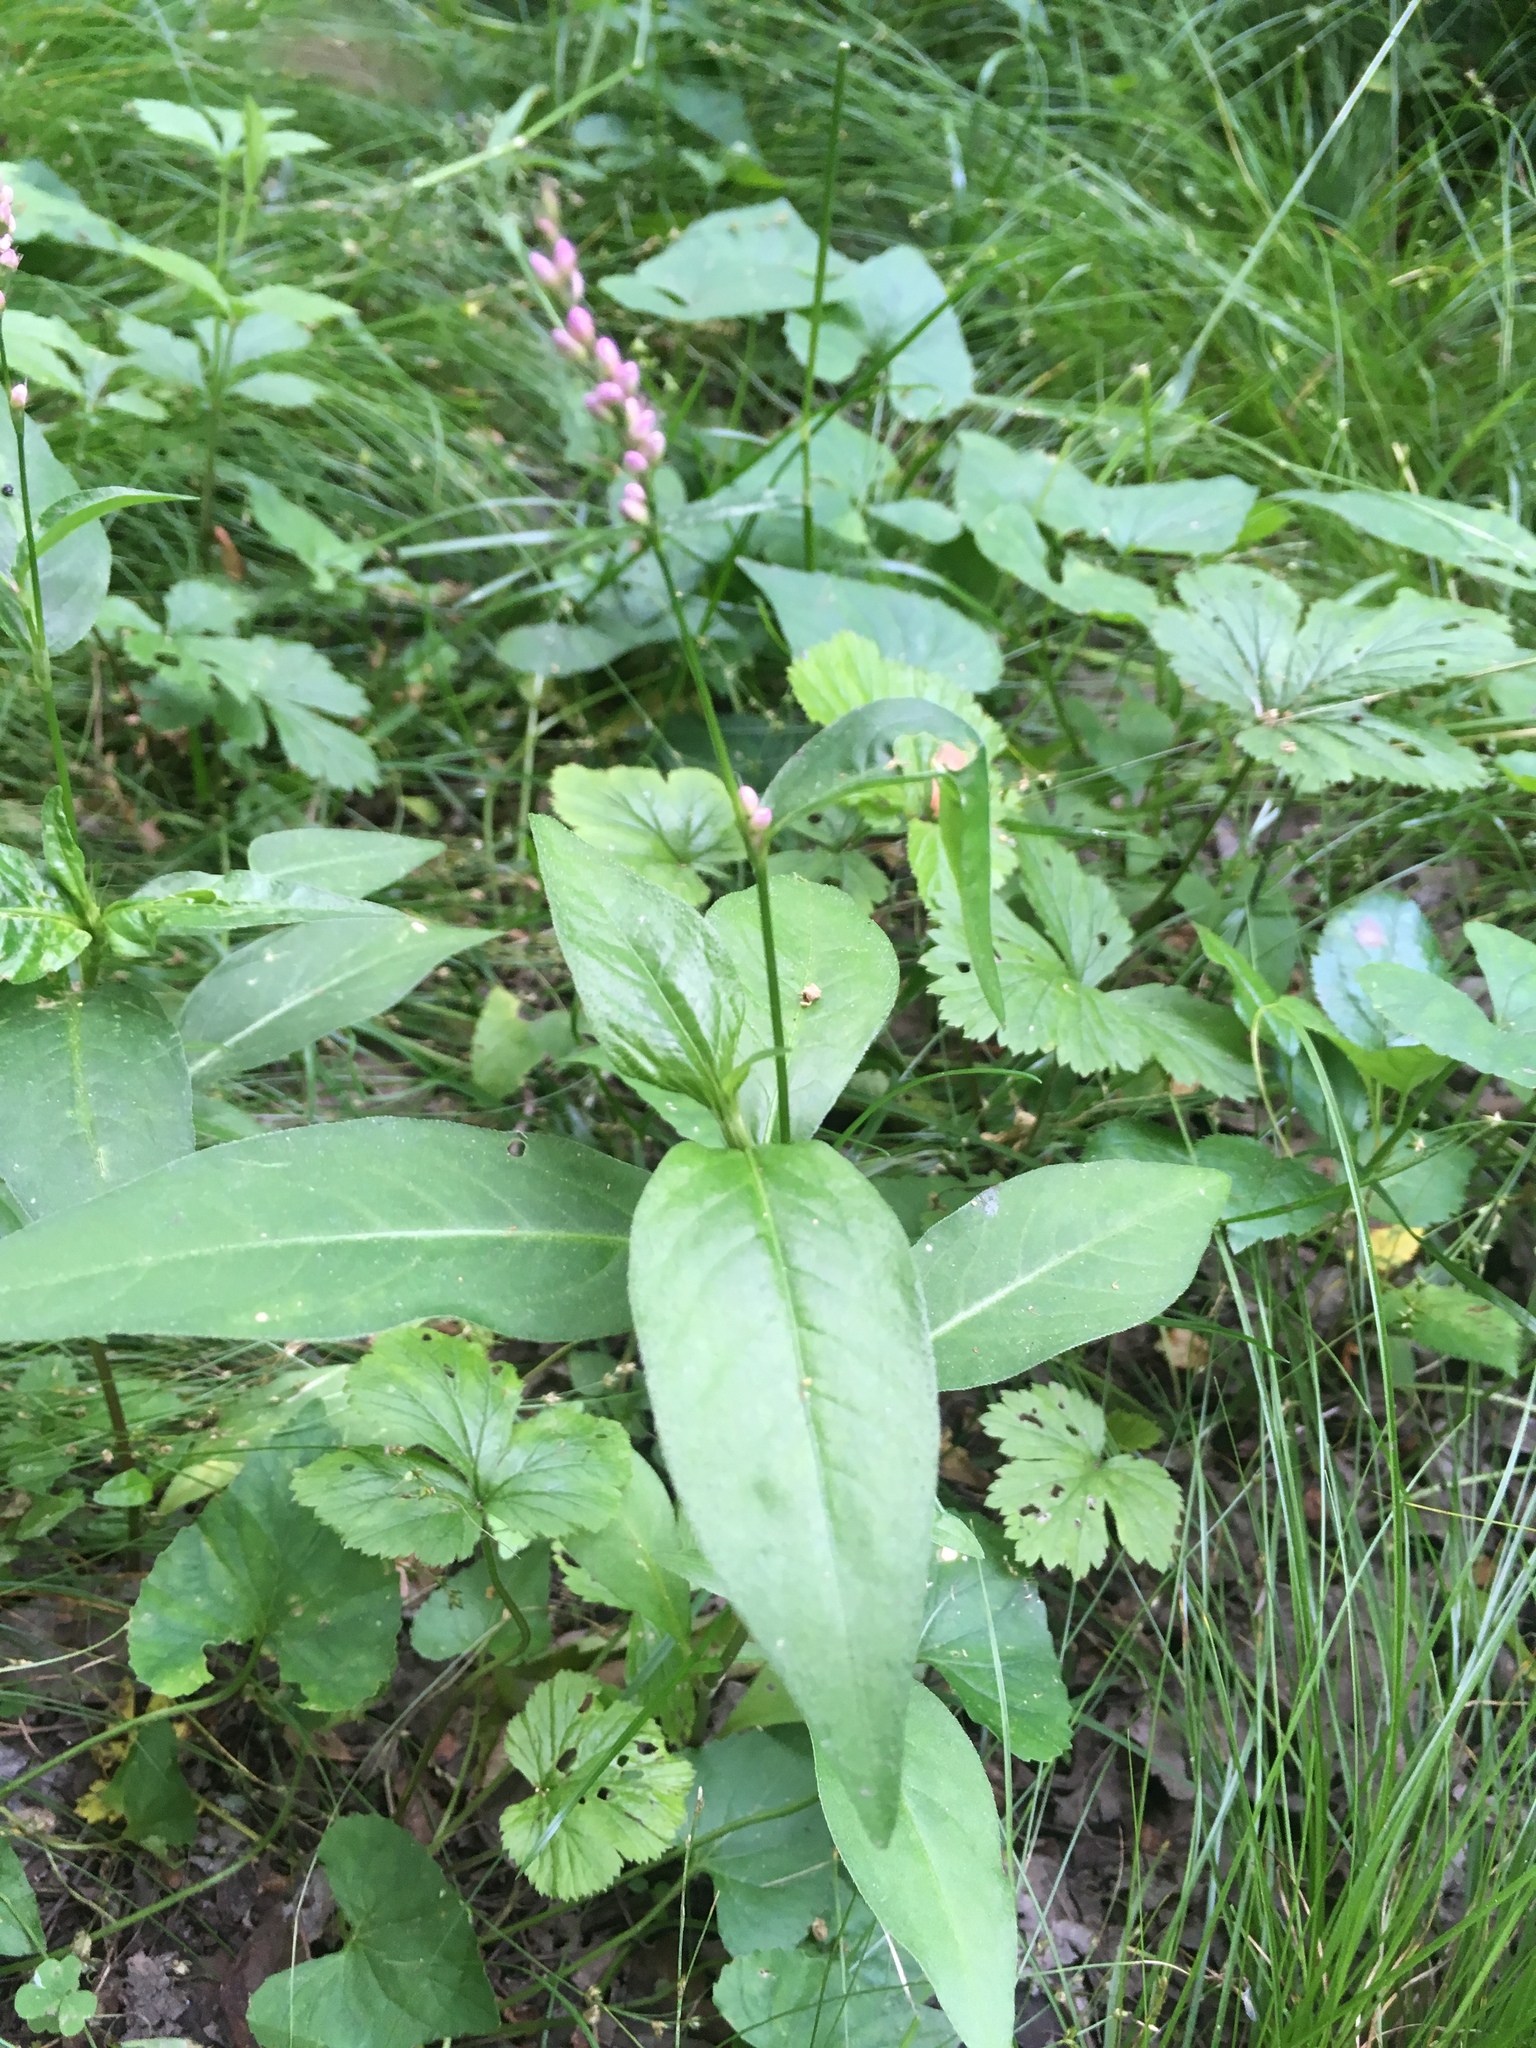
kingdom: Plantae
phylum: Tracheophyta
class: Magnoliopsida
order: Caryophyllales
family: Polygonaceae
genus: Persicaria
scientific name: Persicaria longiseta
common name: Bristly lady's-thumb
